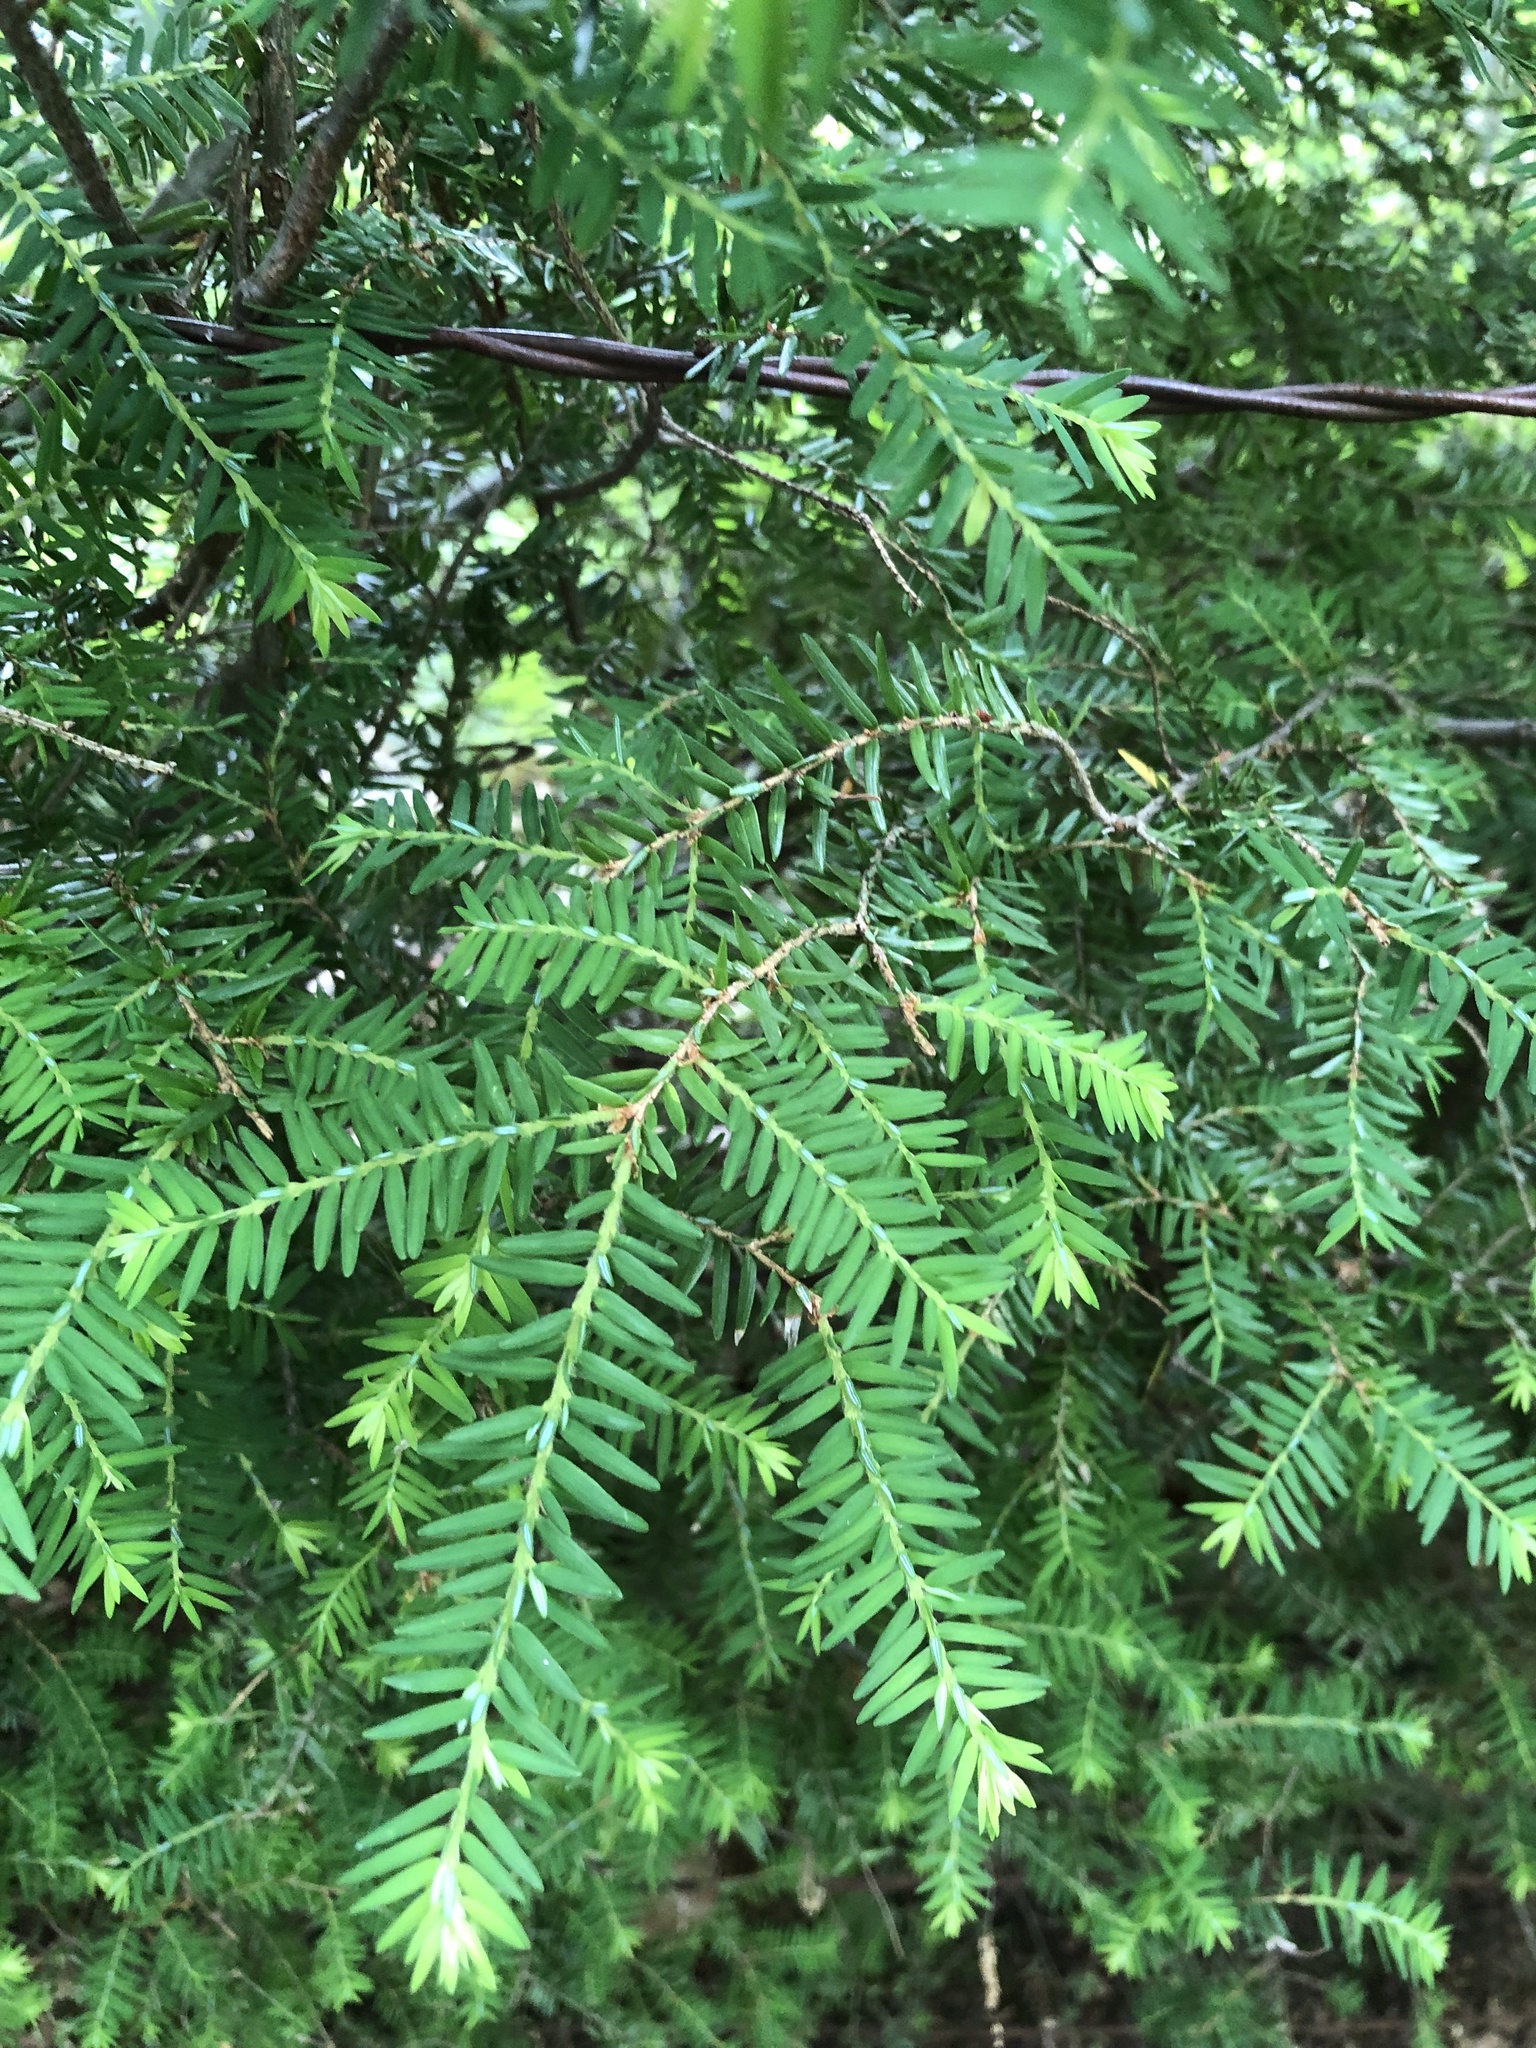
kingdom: Plantae
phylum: Tracheophyta
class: Pinopsida
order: Pinales
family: Pinaceae
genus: Tsuga
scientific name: Tsuga canadensis
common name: Eastern hemlock
